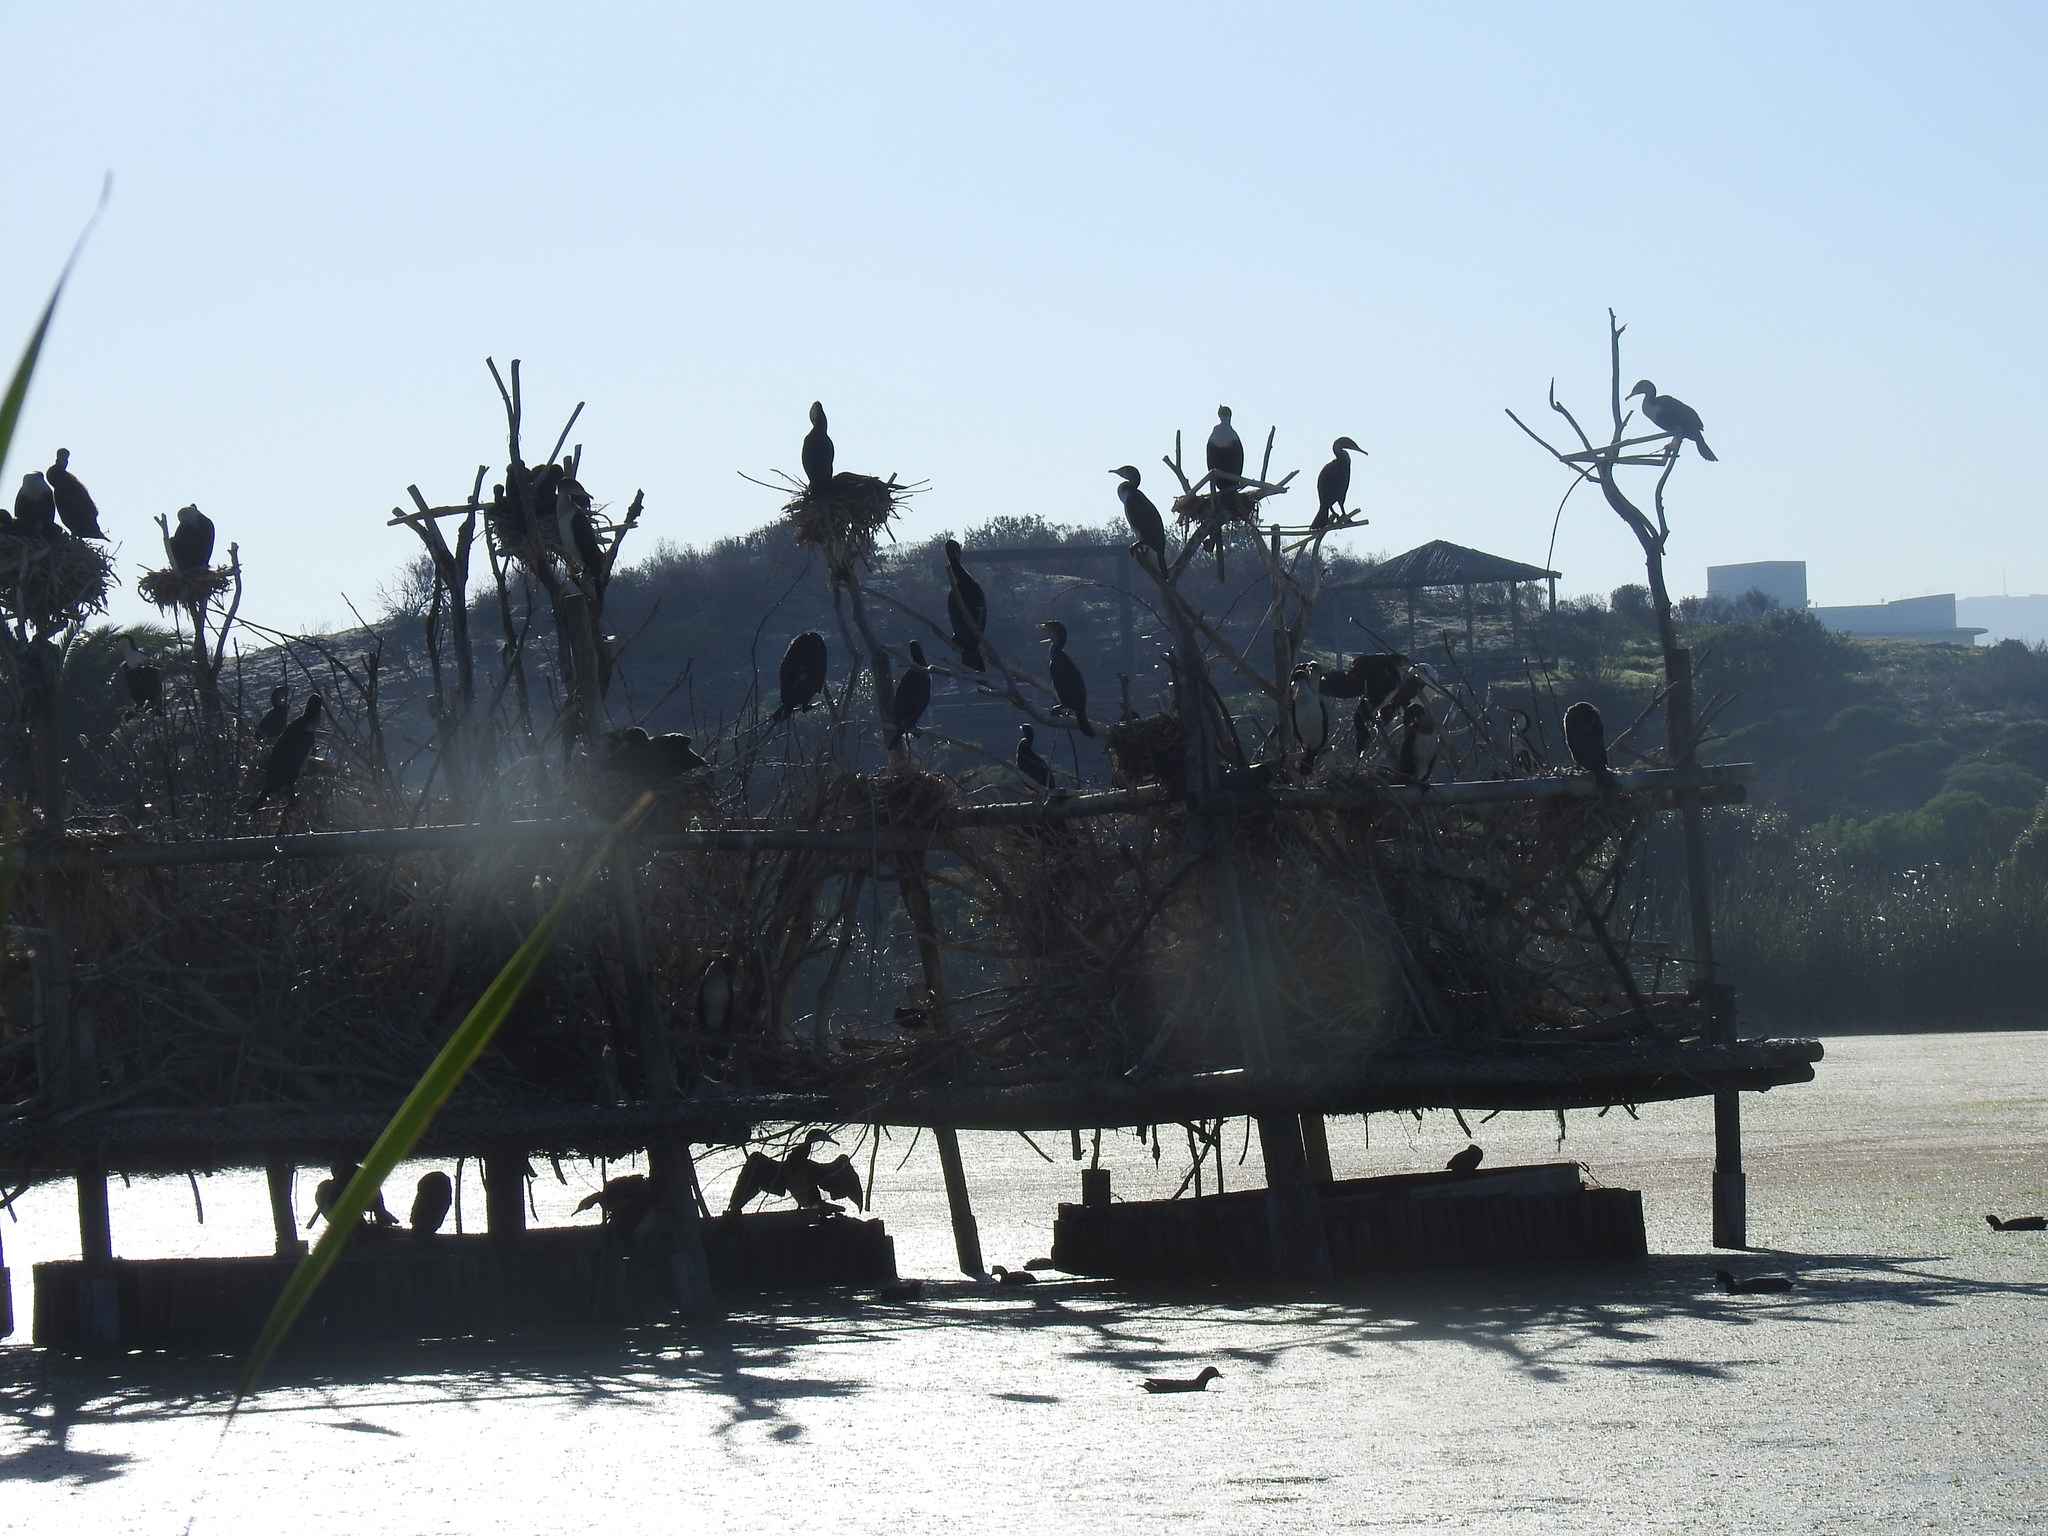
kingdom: Animalia
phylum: Chordata
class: Aves
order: Suliformes
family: Phalacrocoracidae
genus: Phalacrocorax
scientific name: Phalacrocorax carbo
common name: Great cormorant
